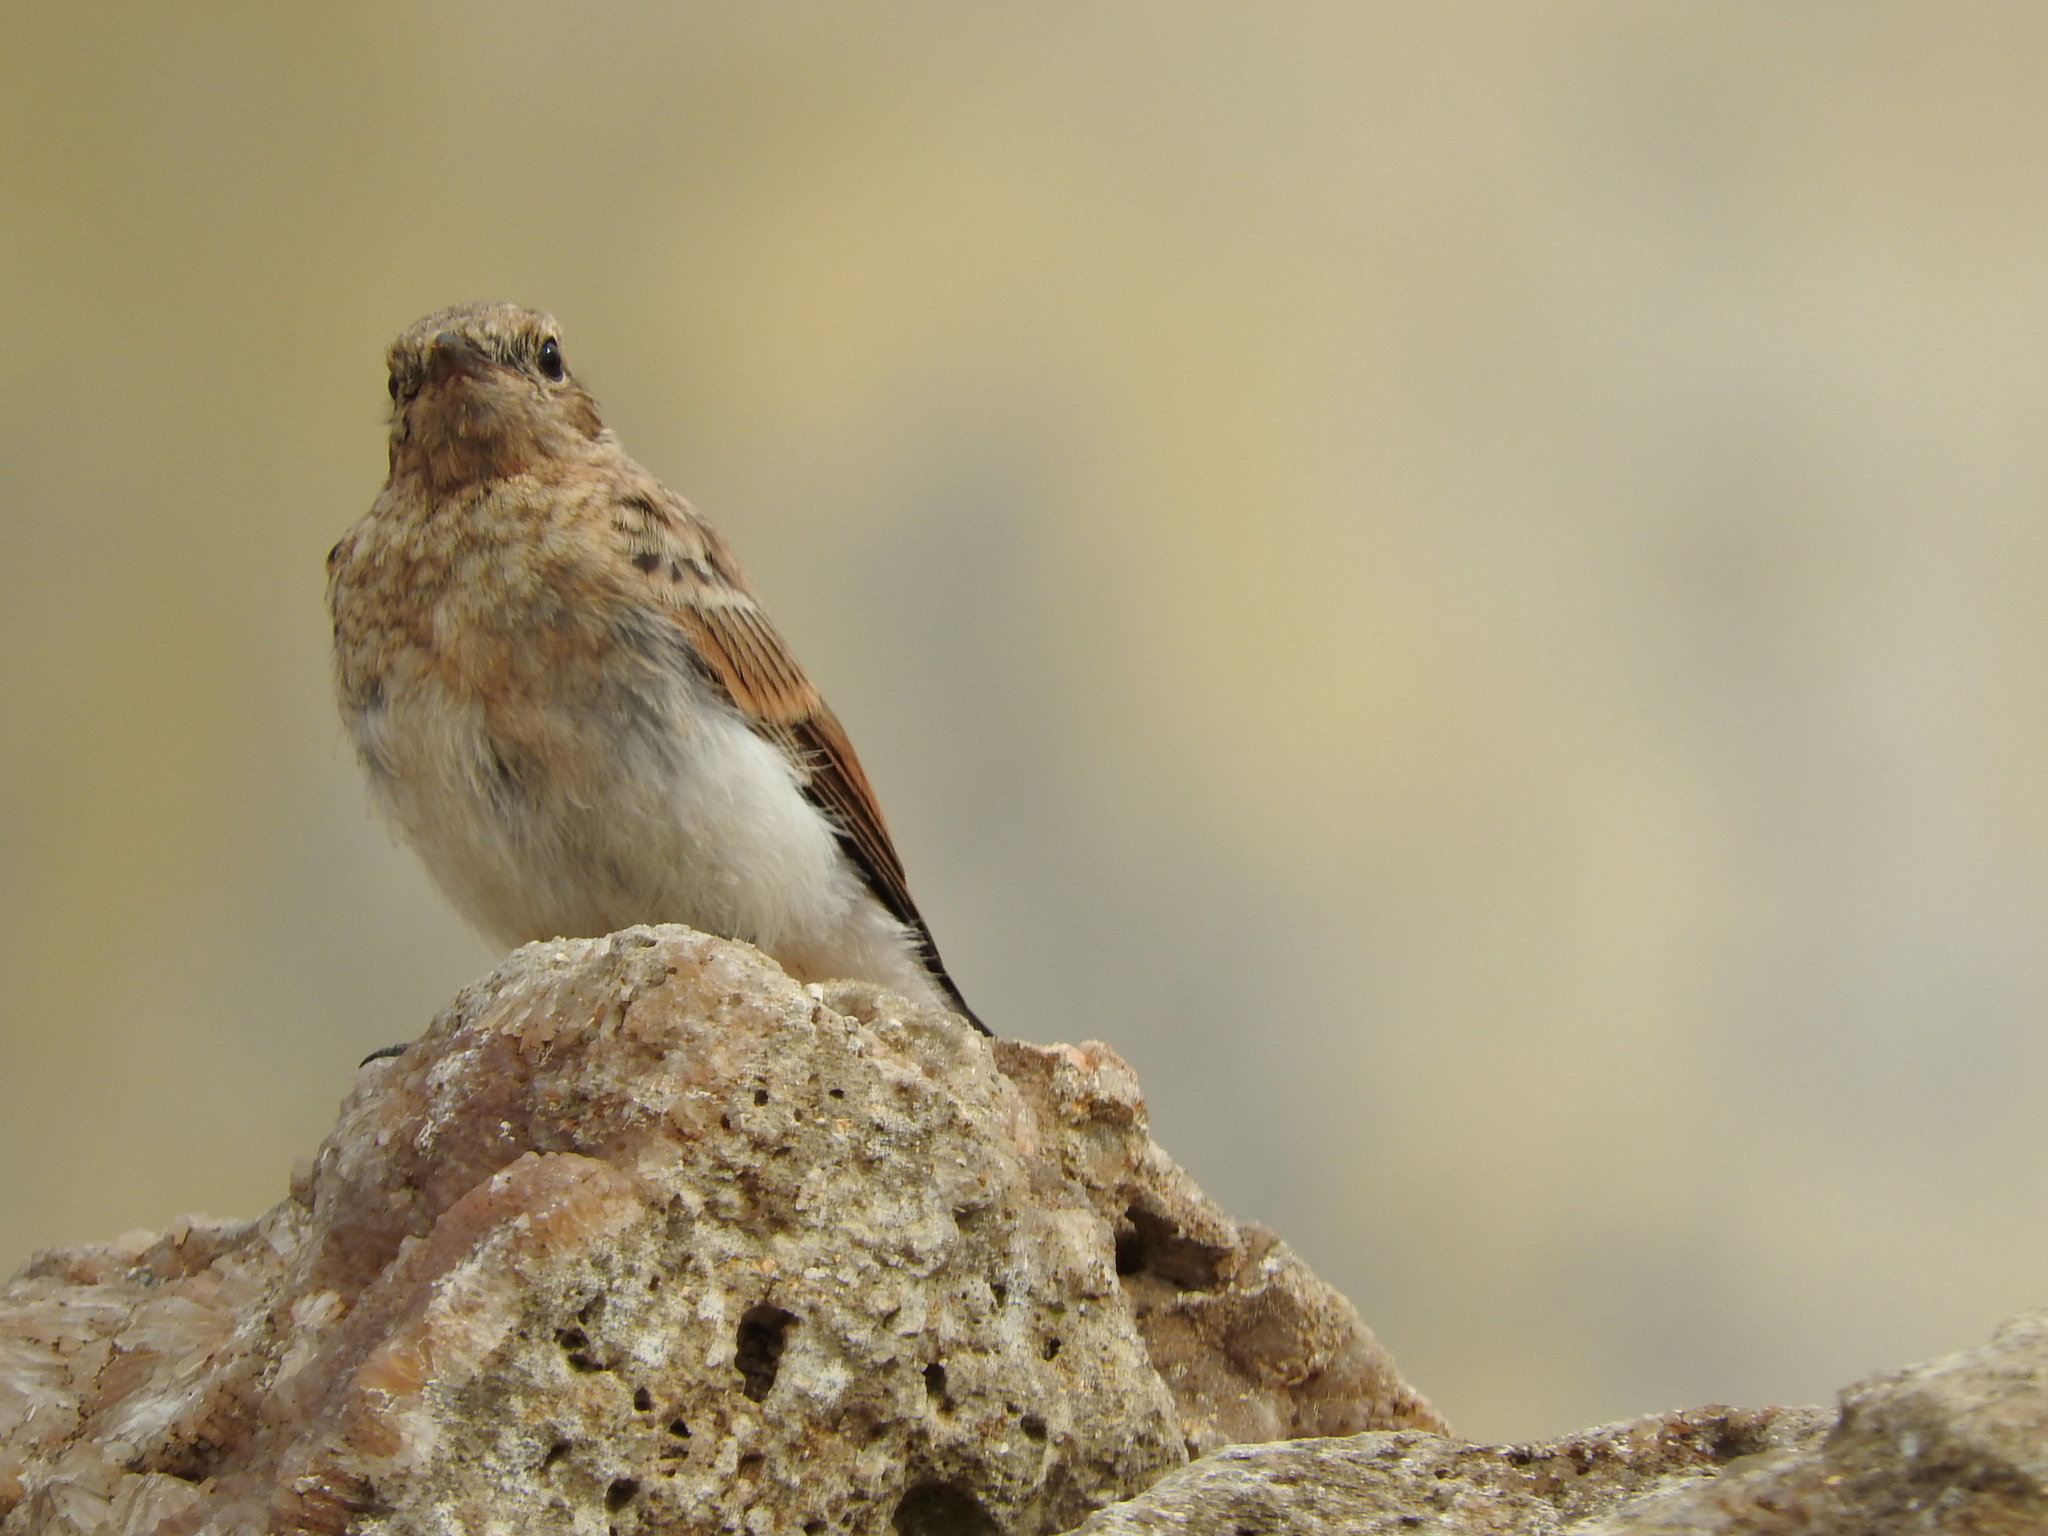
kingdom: Animalia
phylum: Chordata
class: Aves
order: Passeriformes
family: Muscicapidae
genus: Oenanthe
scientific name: Oenanthe
